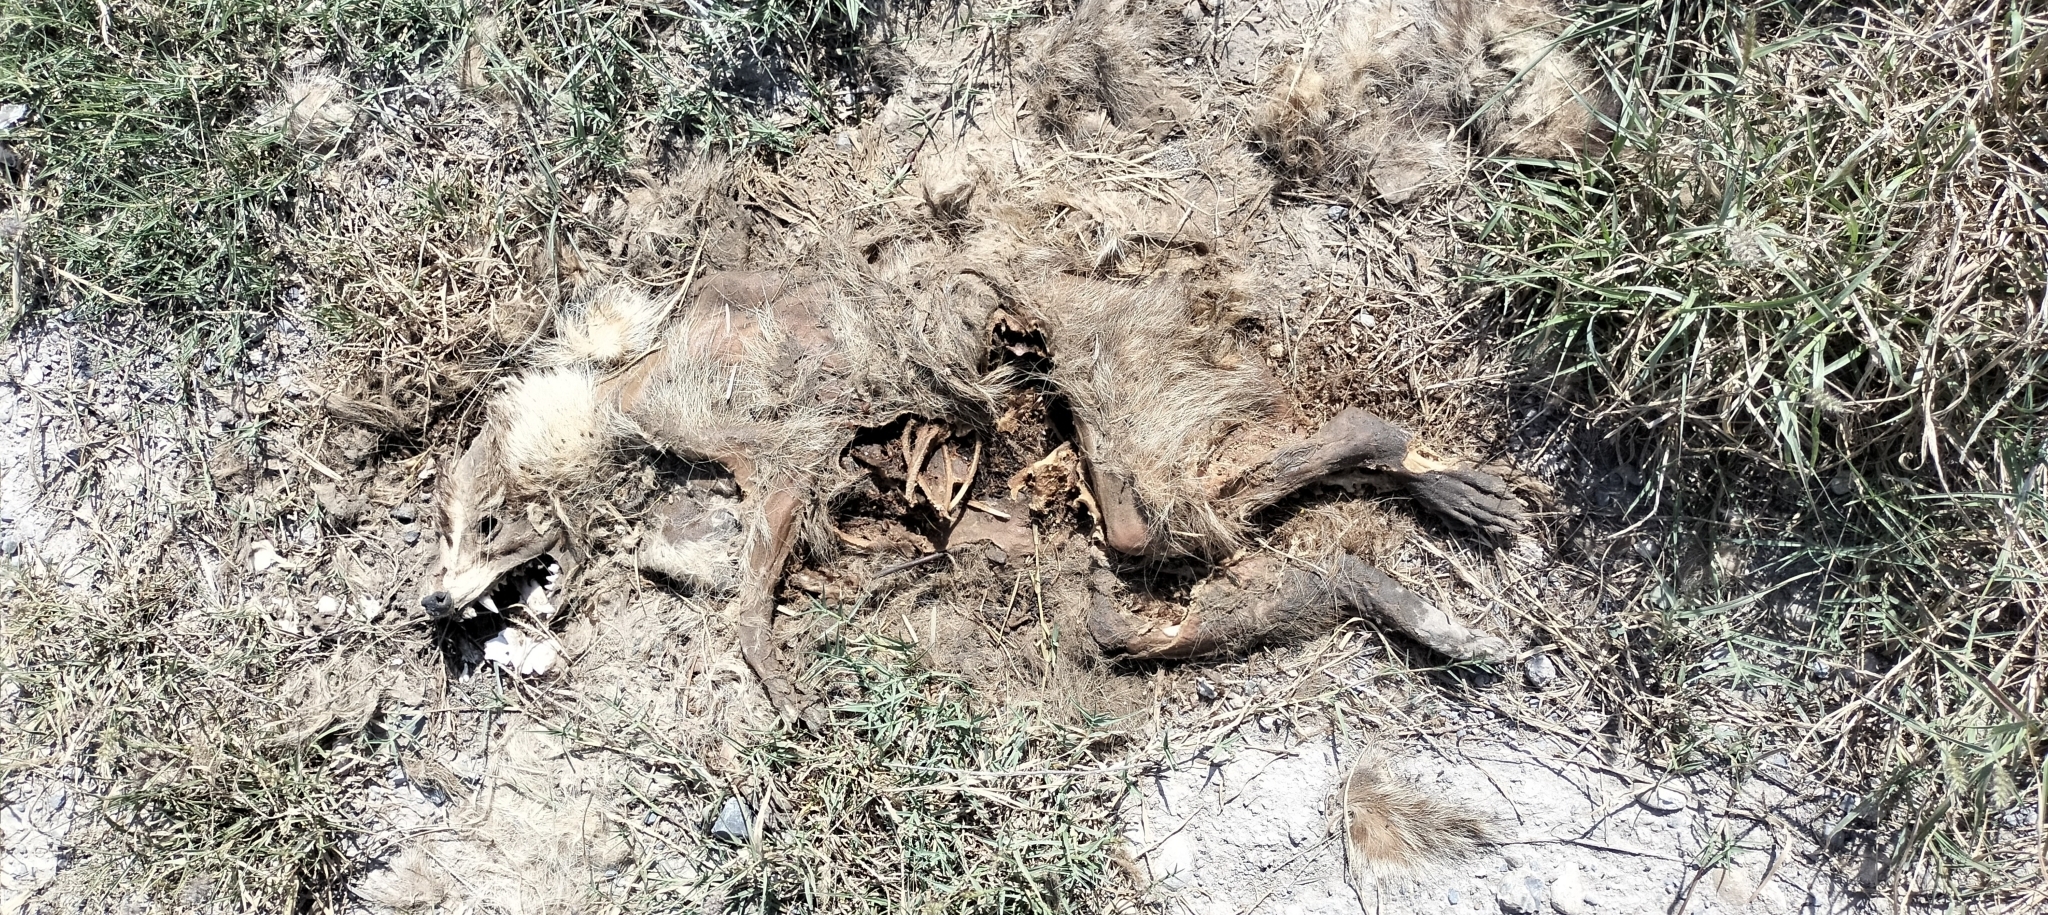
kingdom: Animalia
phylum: Chordata
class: Mammalia
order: Carnivora
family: Procyonidae
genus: Nasua
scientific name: Nasua narica
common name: White-nosed coati
